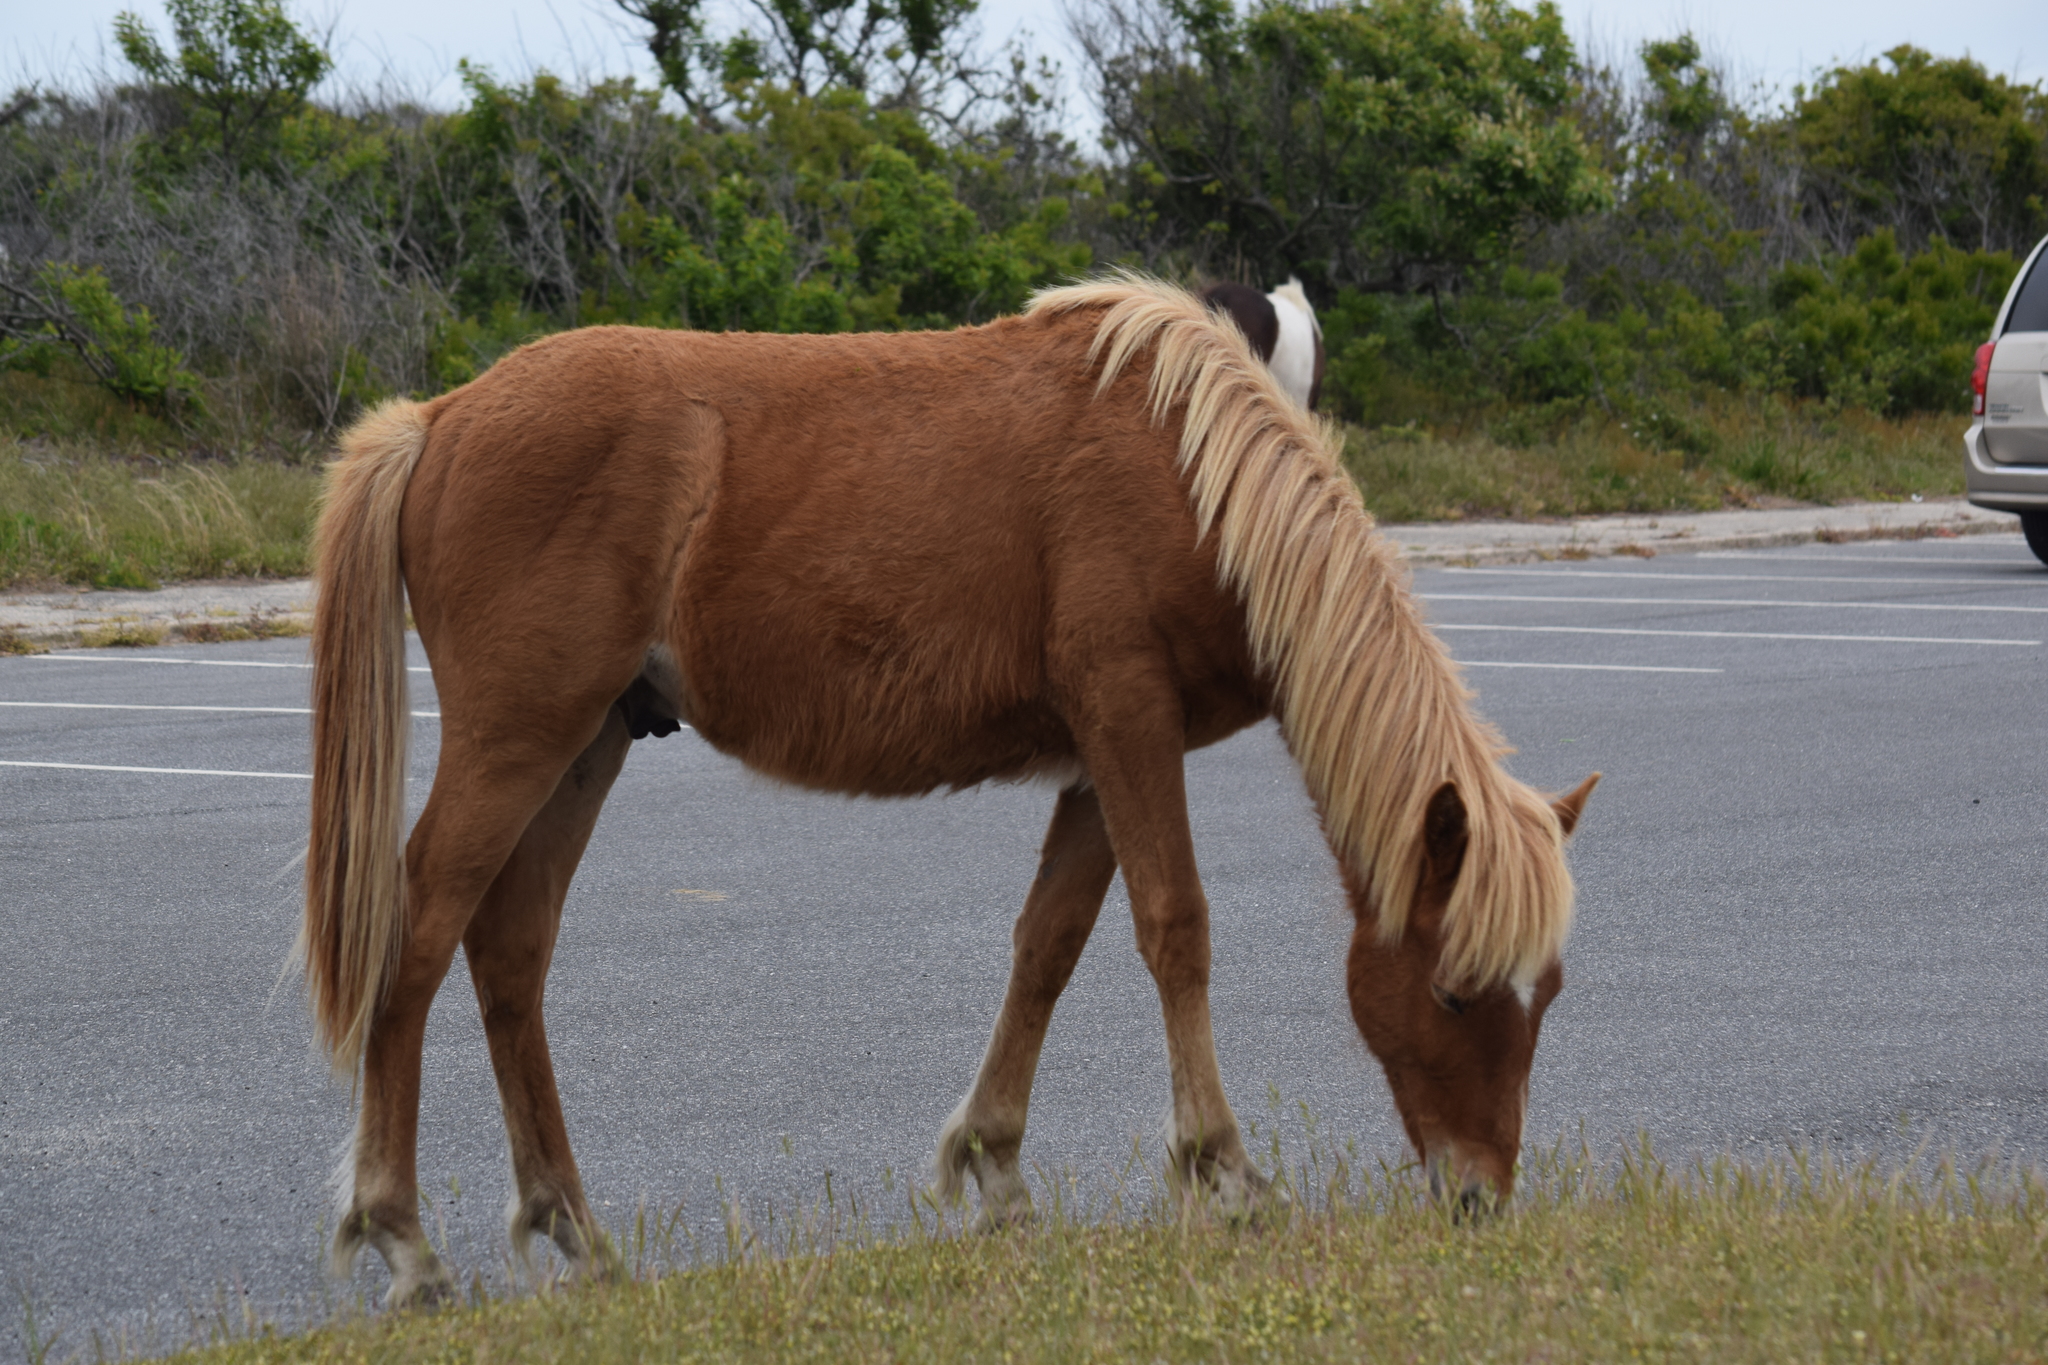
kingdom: Animalia
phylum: Chordata
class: Mammalia
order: Perissodactyla
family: Equidae
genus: Equus
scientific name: Equus caballus
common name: Horse
